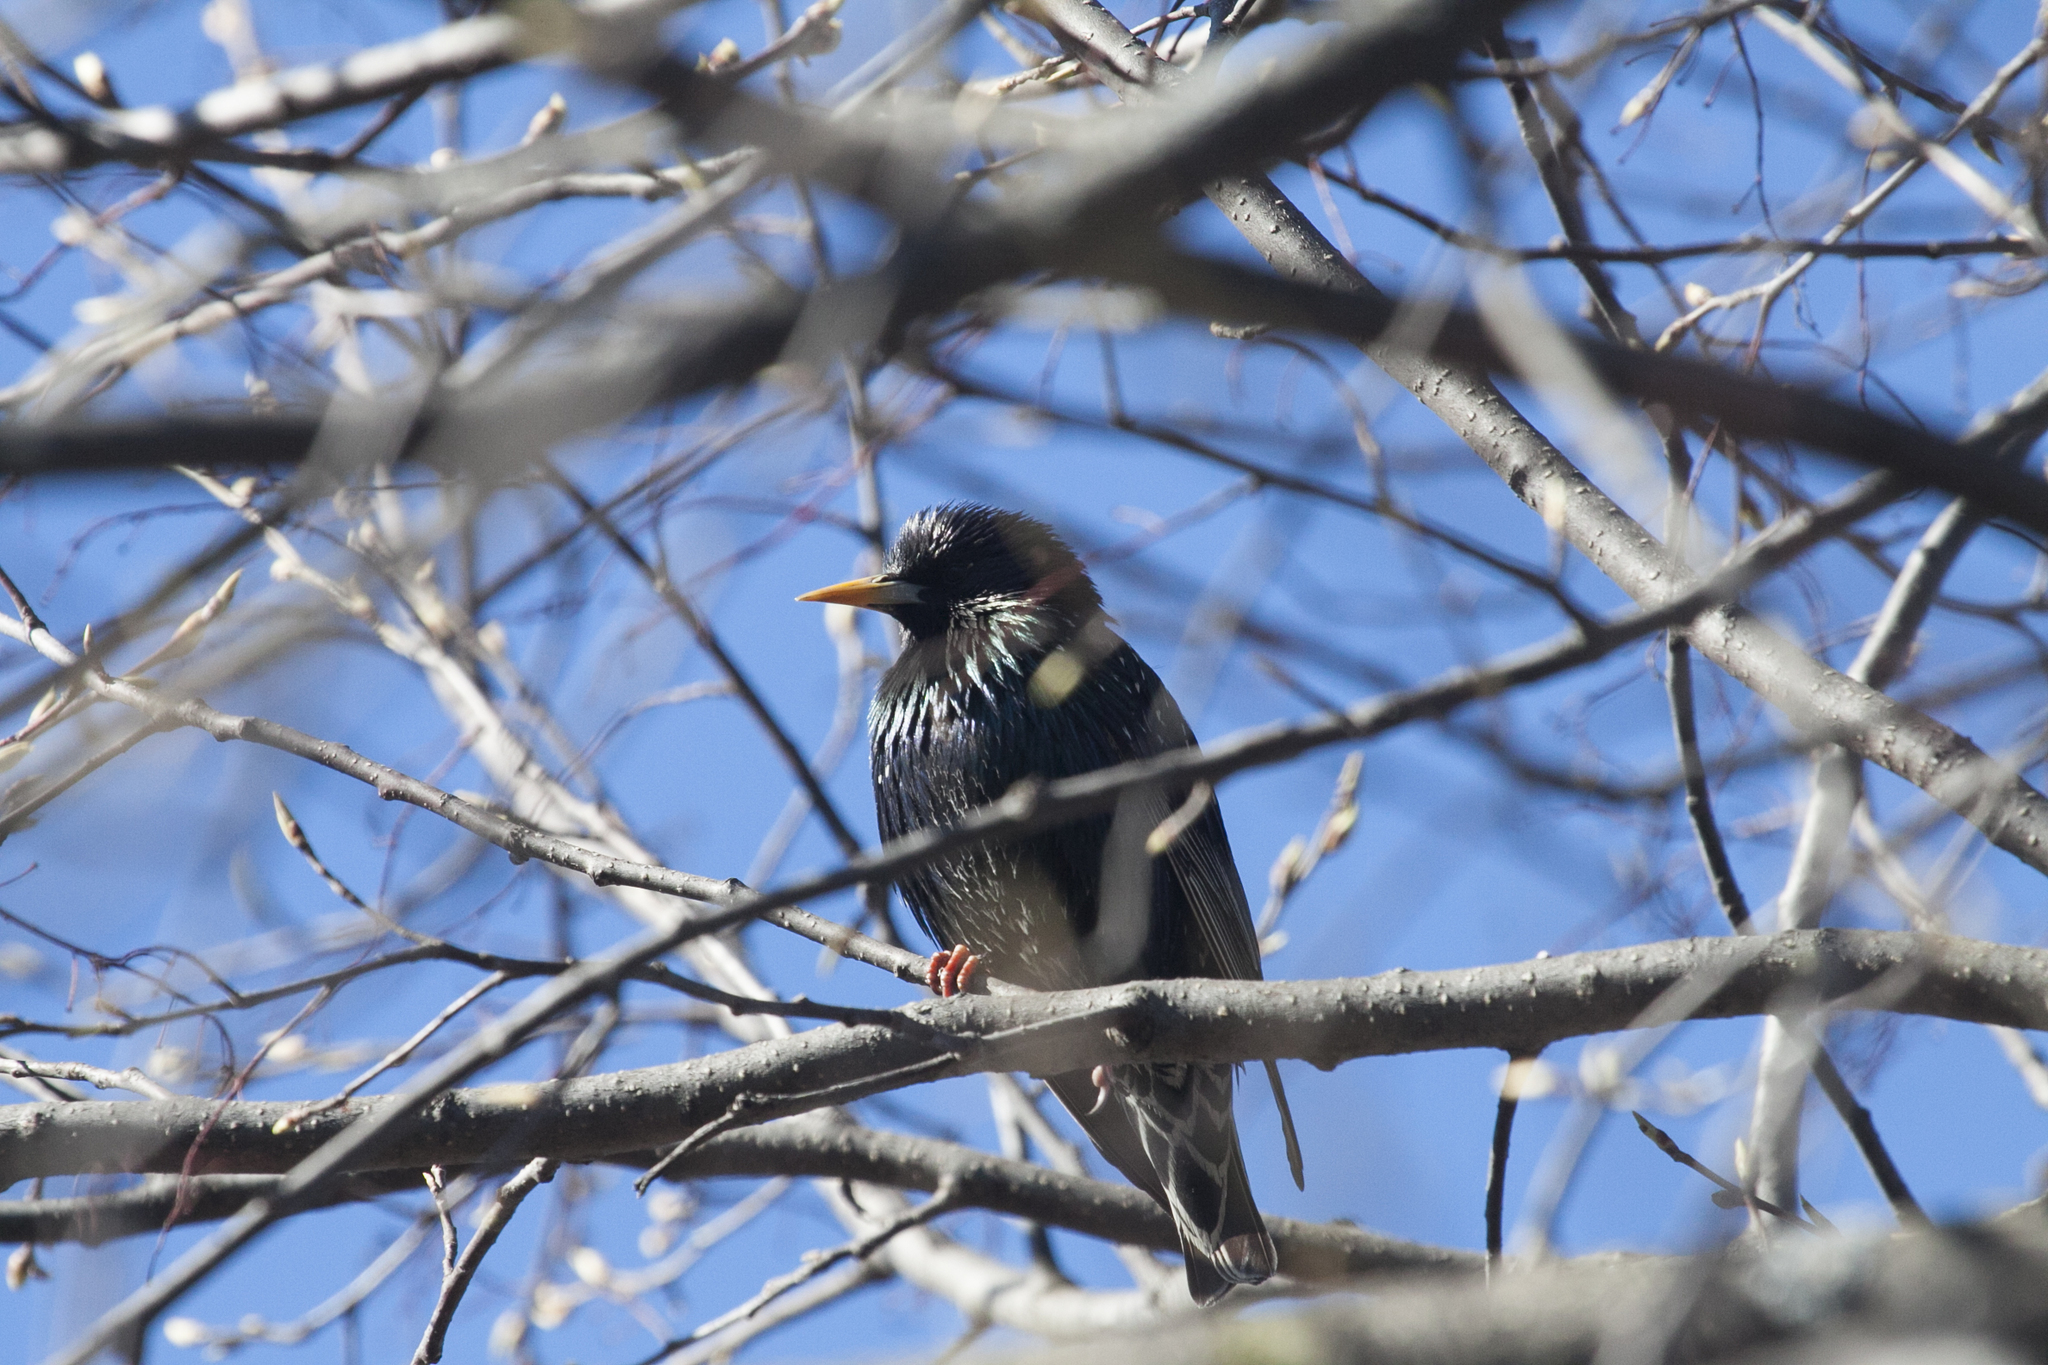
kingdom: Animalia
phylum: Chordata
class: Aves
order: Passeriformes
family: Sturnidae
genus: Sturnus
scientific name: Sturnus vulgaris
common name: Common starling
